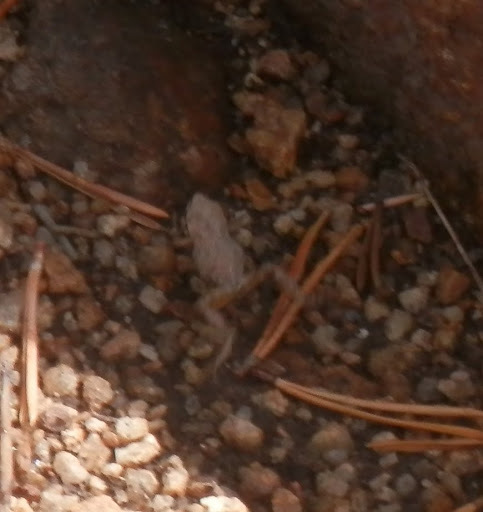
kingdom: Animalia
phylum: Chordata
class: Amphibia
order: Anura
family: Hylidae
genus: Pseudacris
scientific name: Pseudacris regilla
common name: Pacific chorus frog
